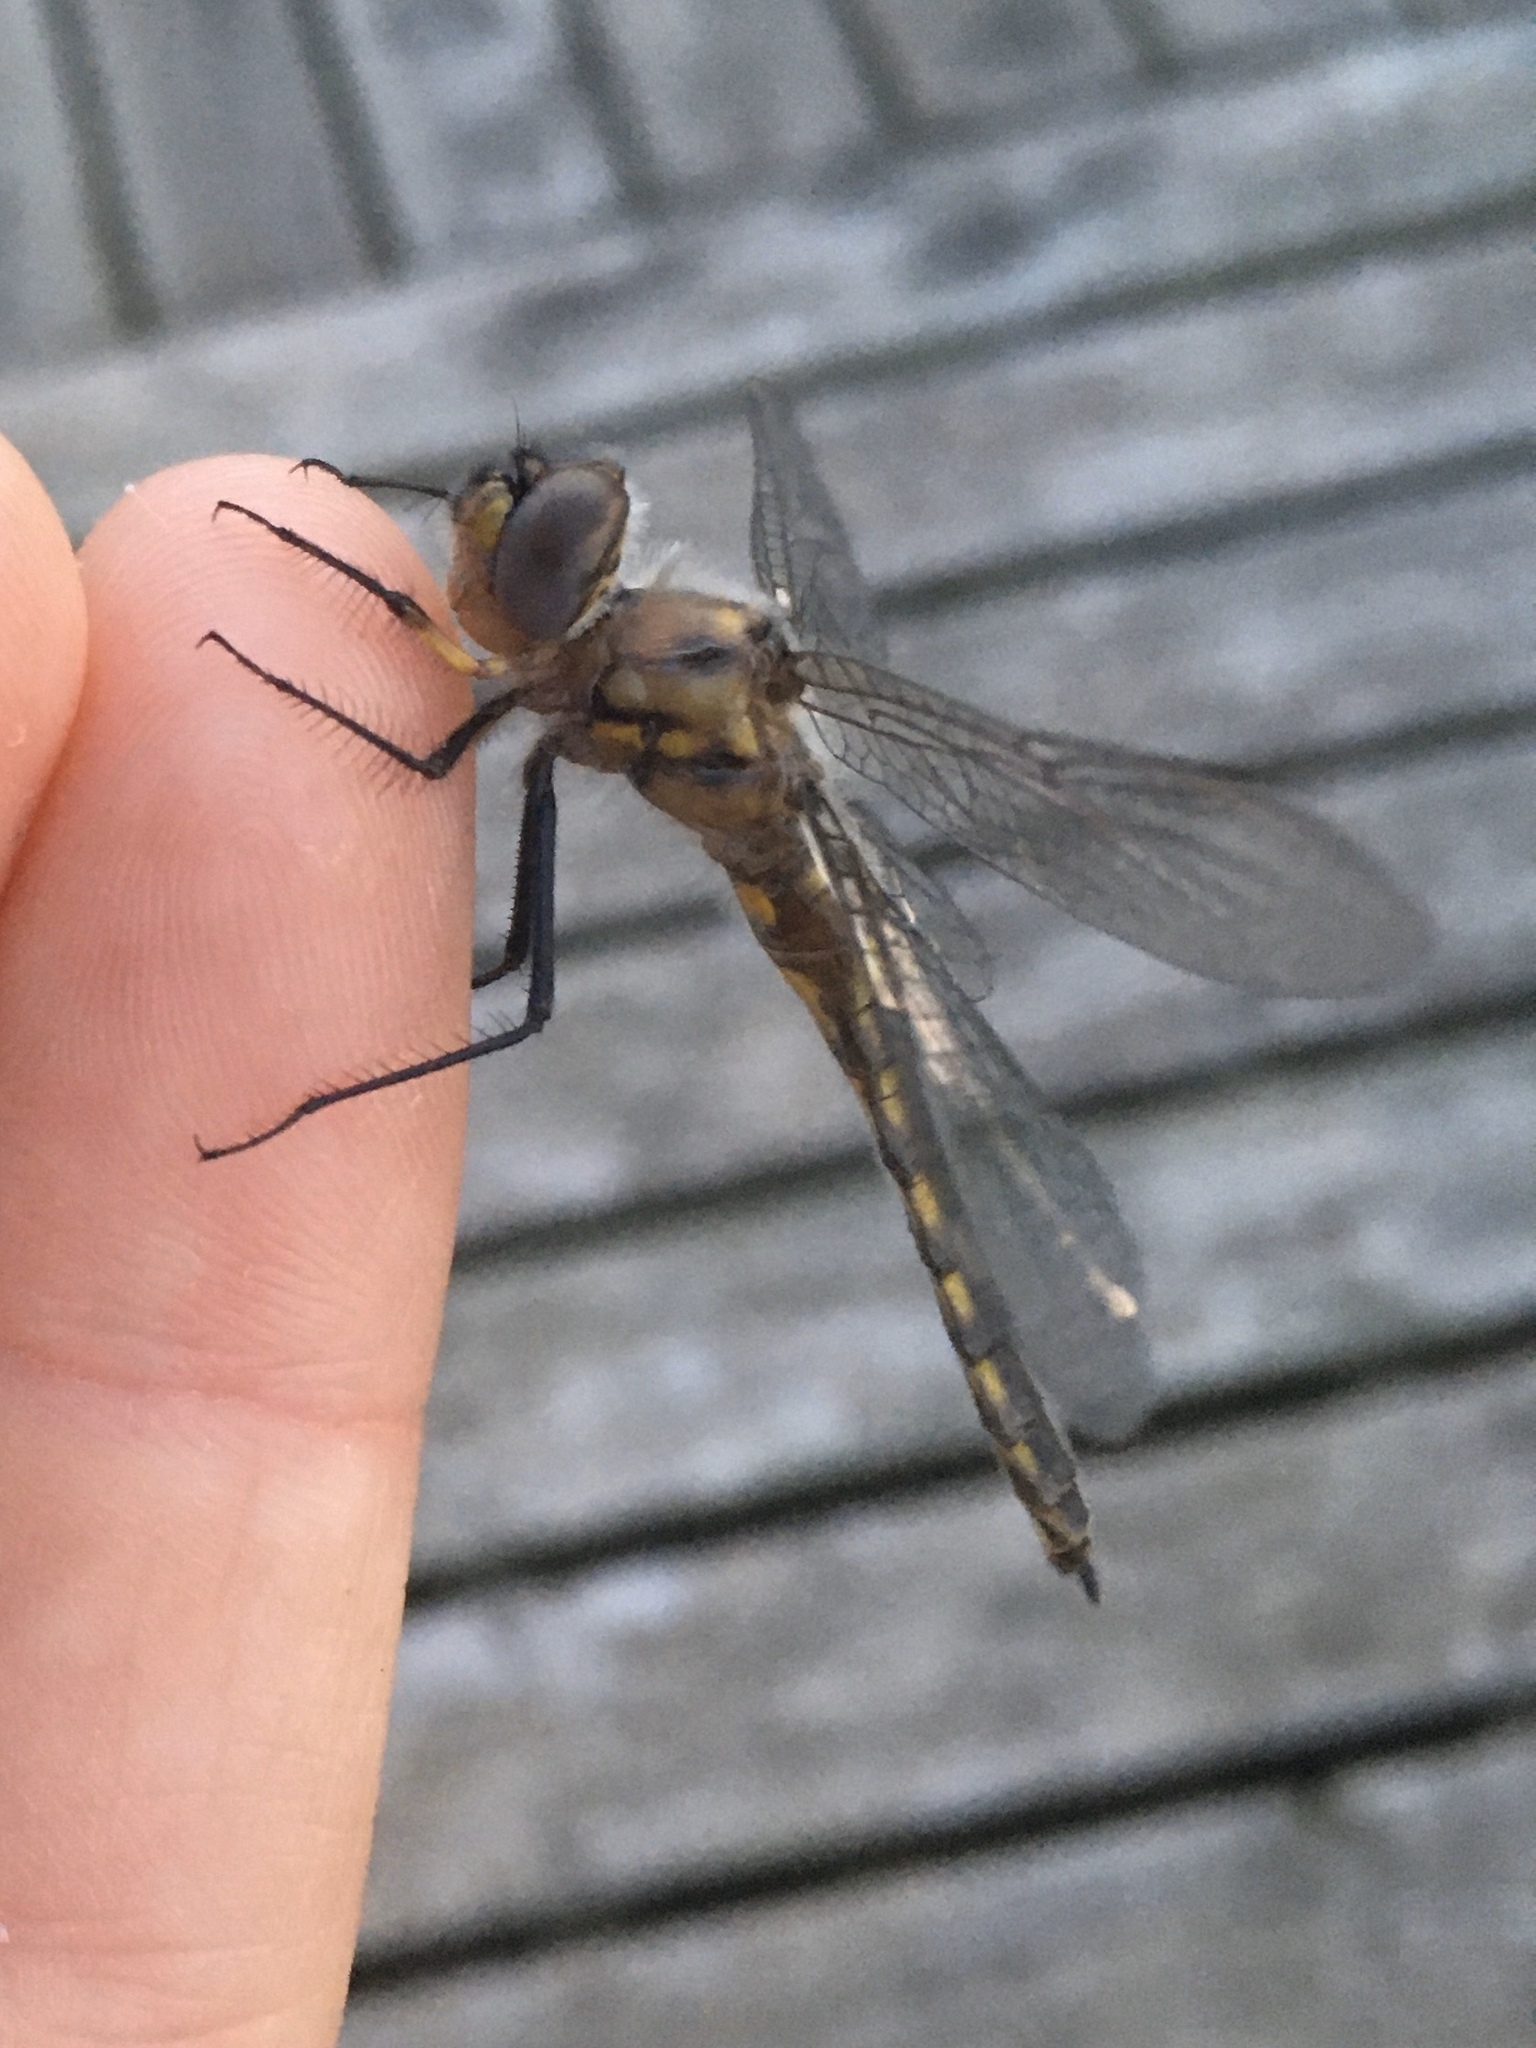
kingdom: Animalia
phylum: Arthropoda
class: Insecta
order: Odonata
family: Corduliidae
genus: Epitheca
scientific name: Epitheca cynosura
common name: Common baskettail
